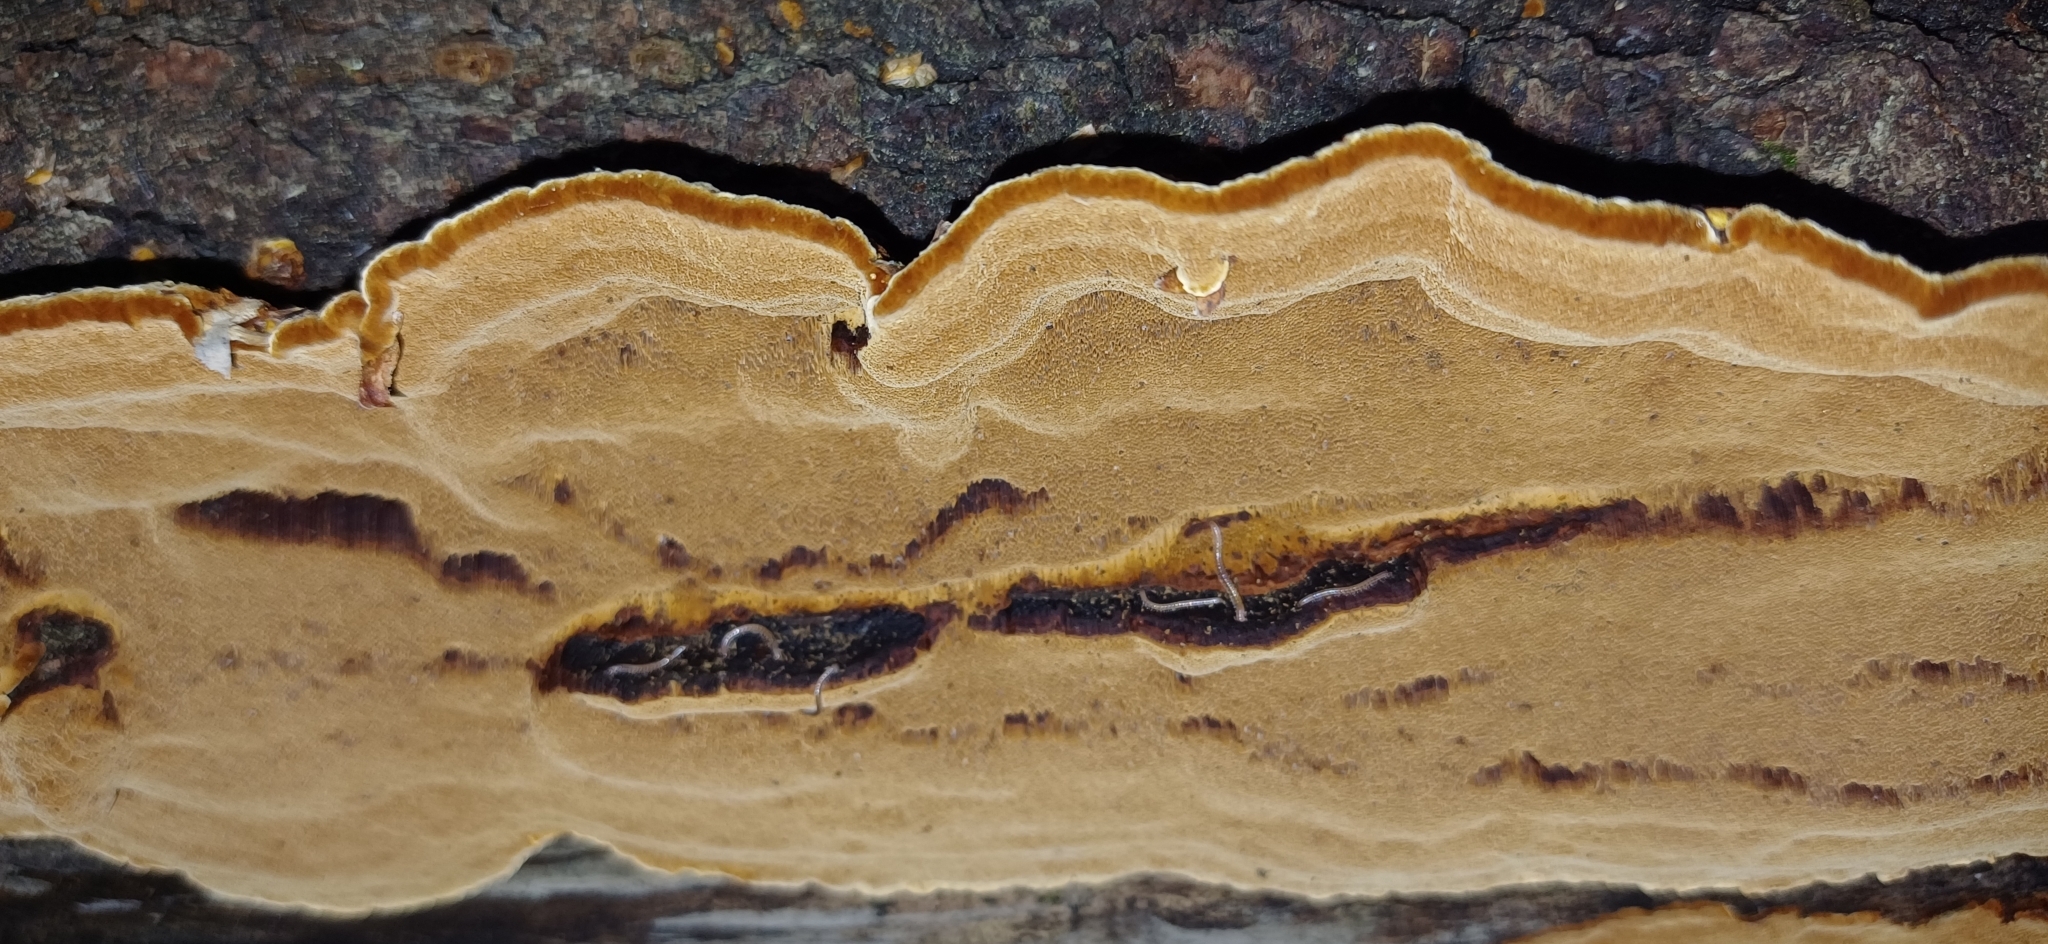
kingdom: Fungi
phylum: Basidiomycota
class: Agaricomycetes
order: Hymenochaetales
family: Hymenochaetaceae
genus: Phellinopsis
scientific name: Phellinopsis conchata
